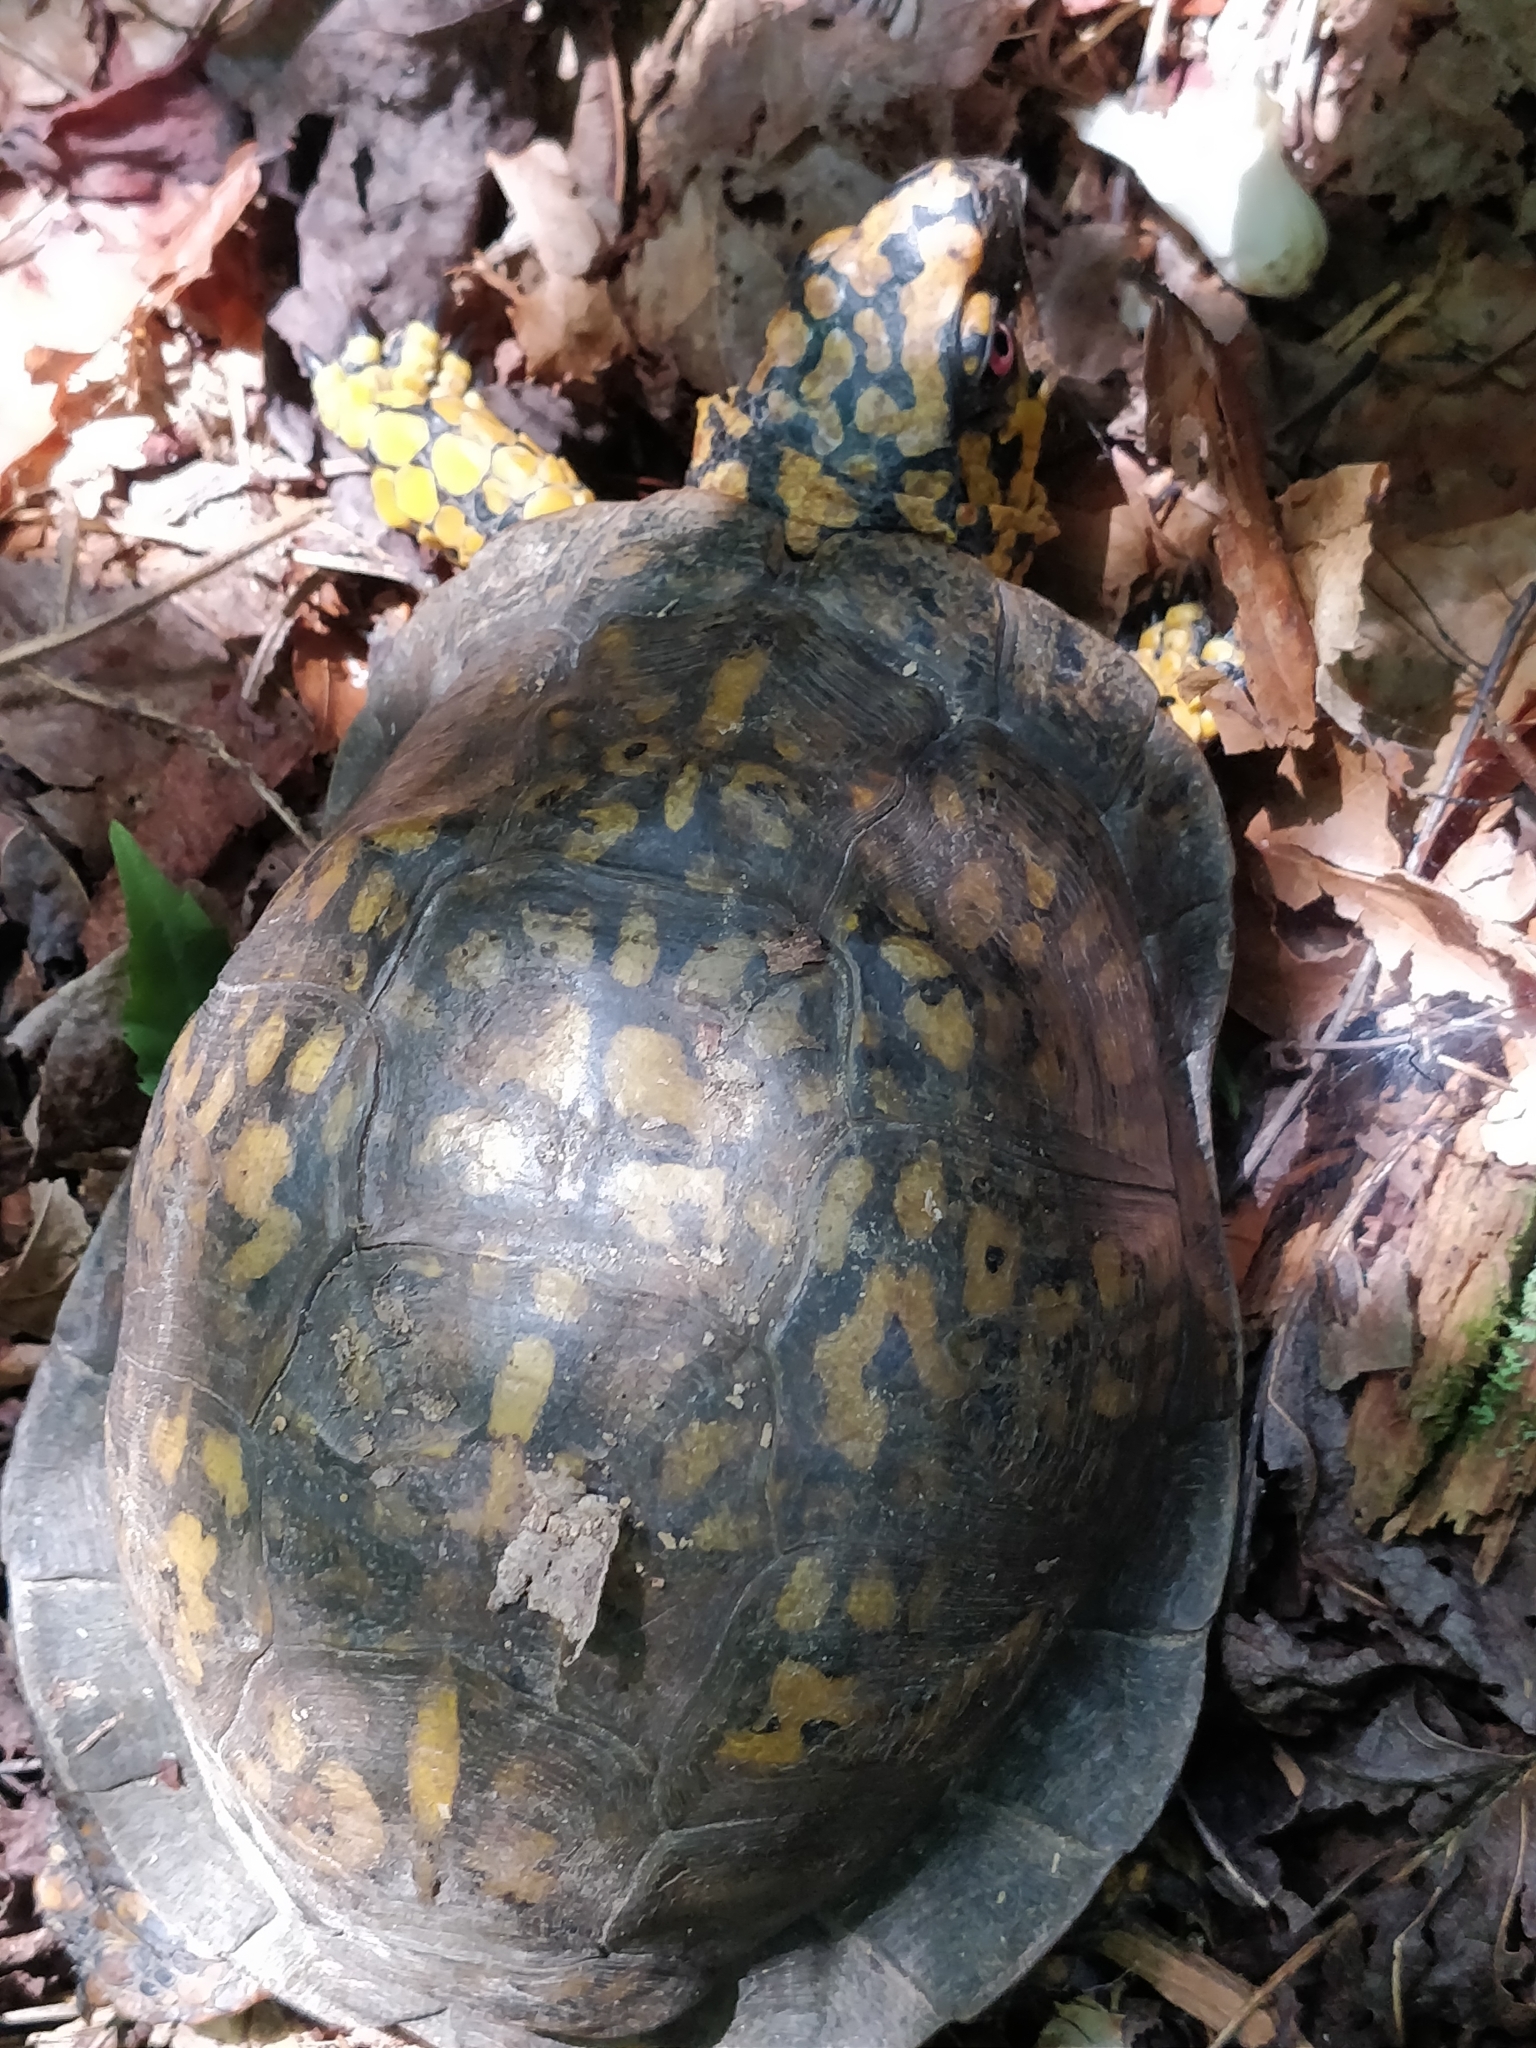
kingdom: Animalia
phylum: Chordata
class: Testudines
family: Emydidae
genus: Terrapene
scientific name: Terrapene carolina
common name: Common box turtle
